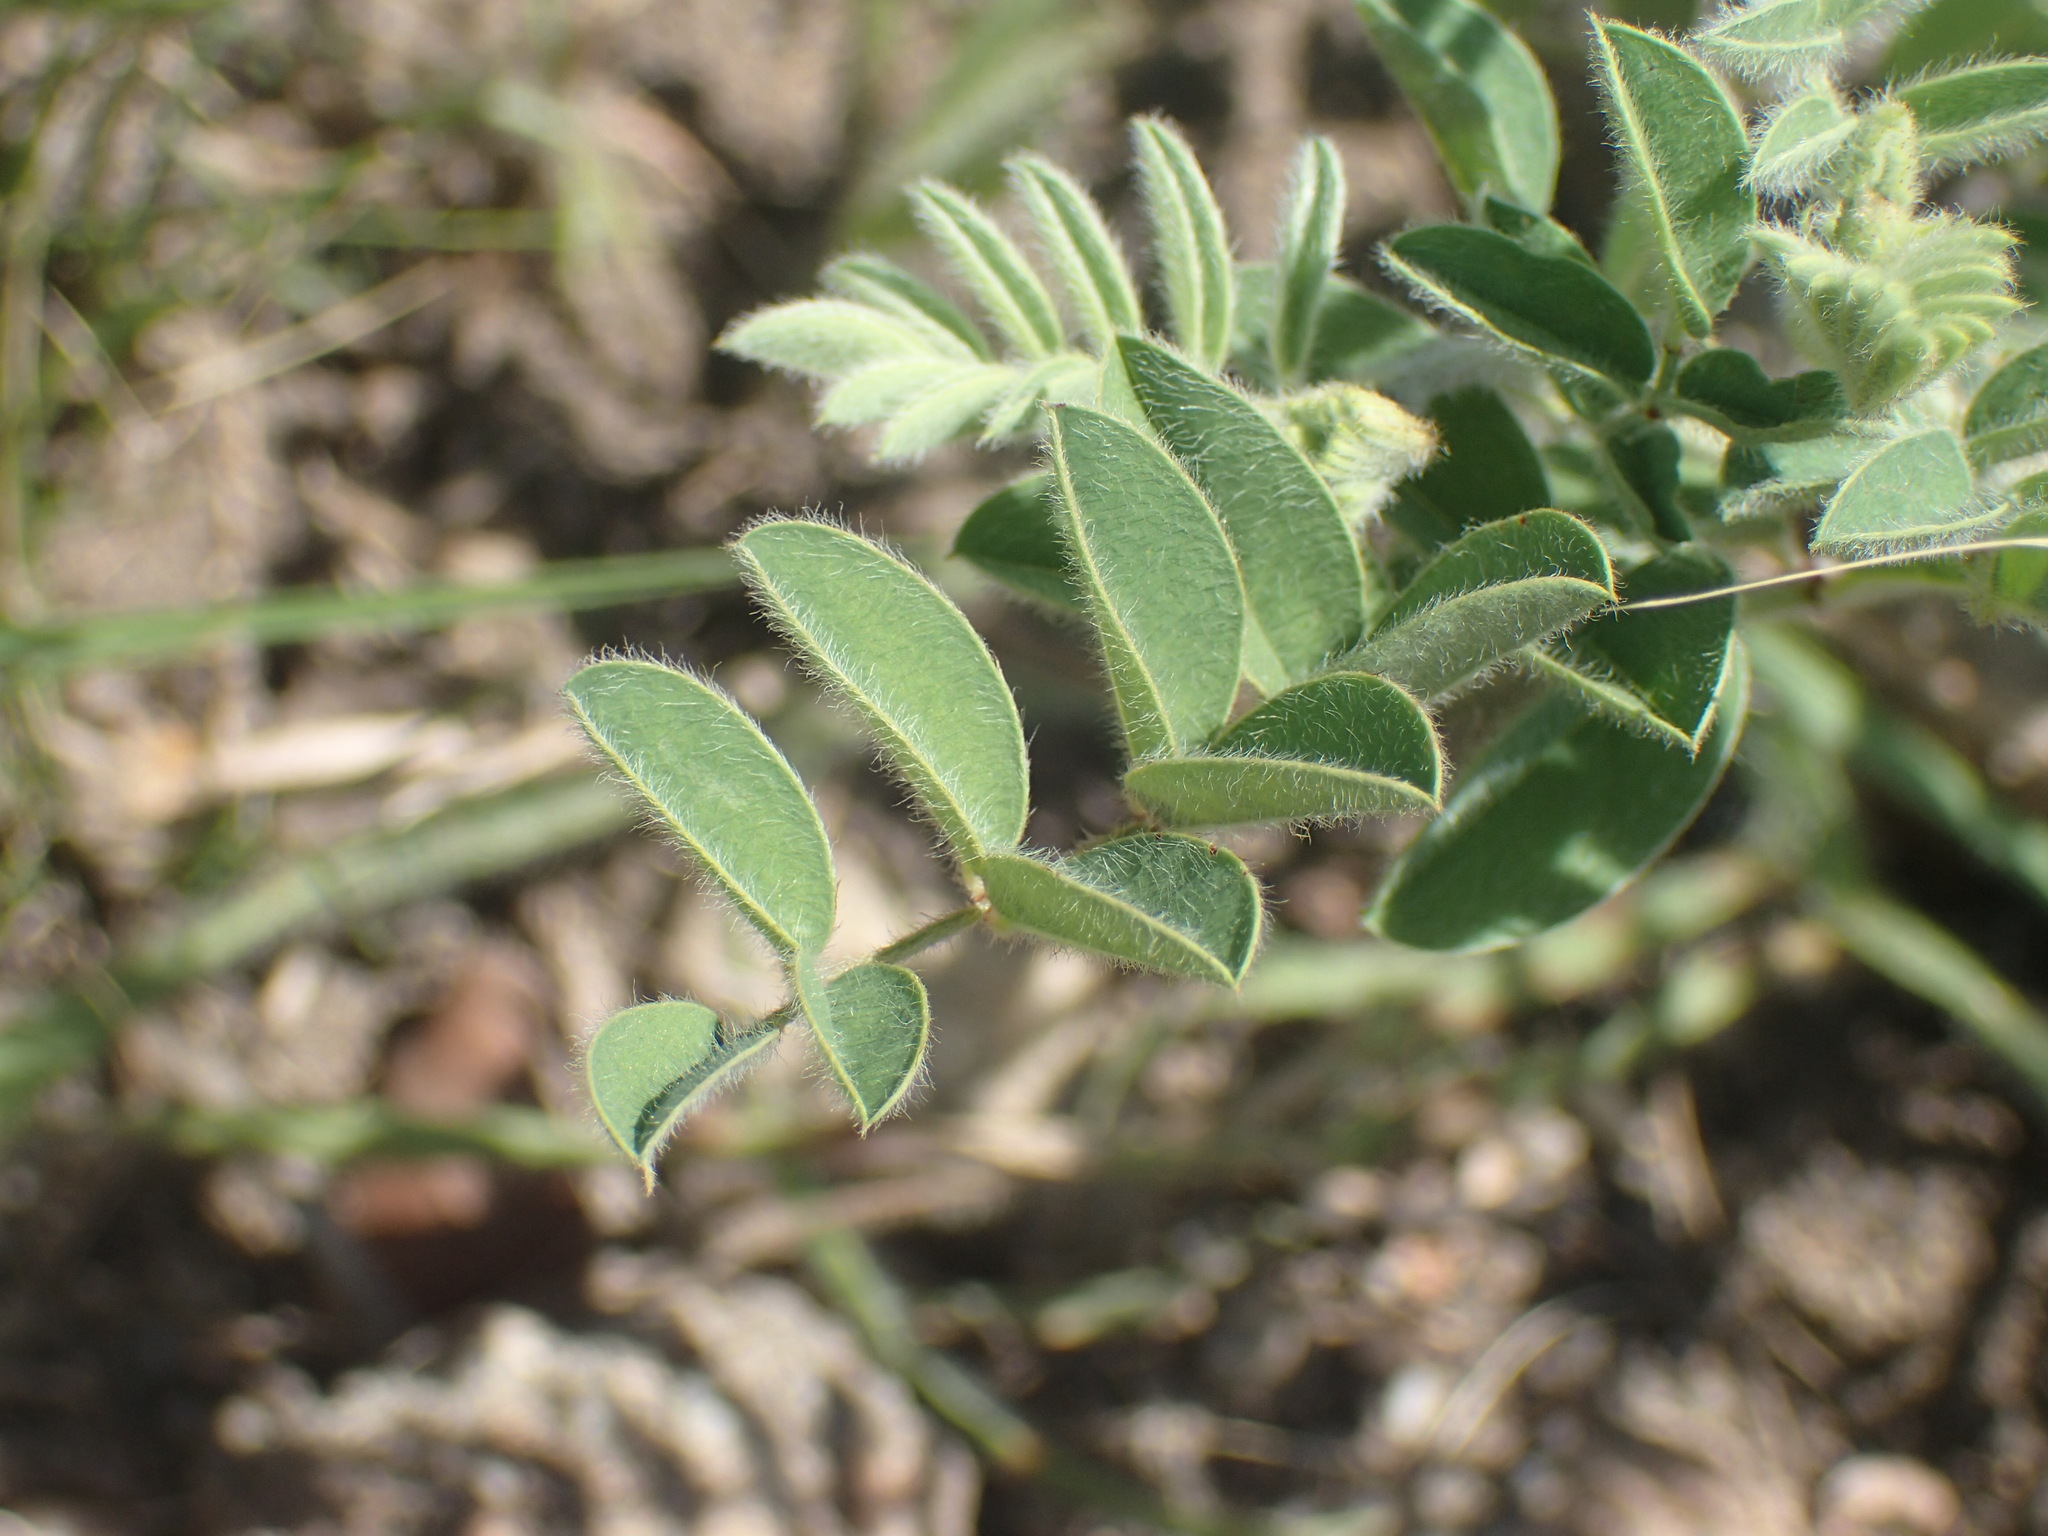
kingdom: Plantae
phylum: Tracheophyta
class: Magnoliopsida
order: Fabales
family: Fabaceae
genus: Indigofera
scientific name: Indigofera velutina
